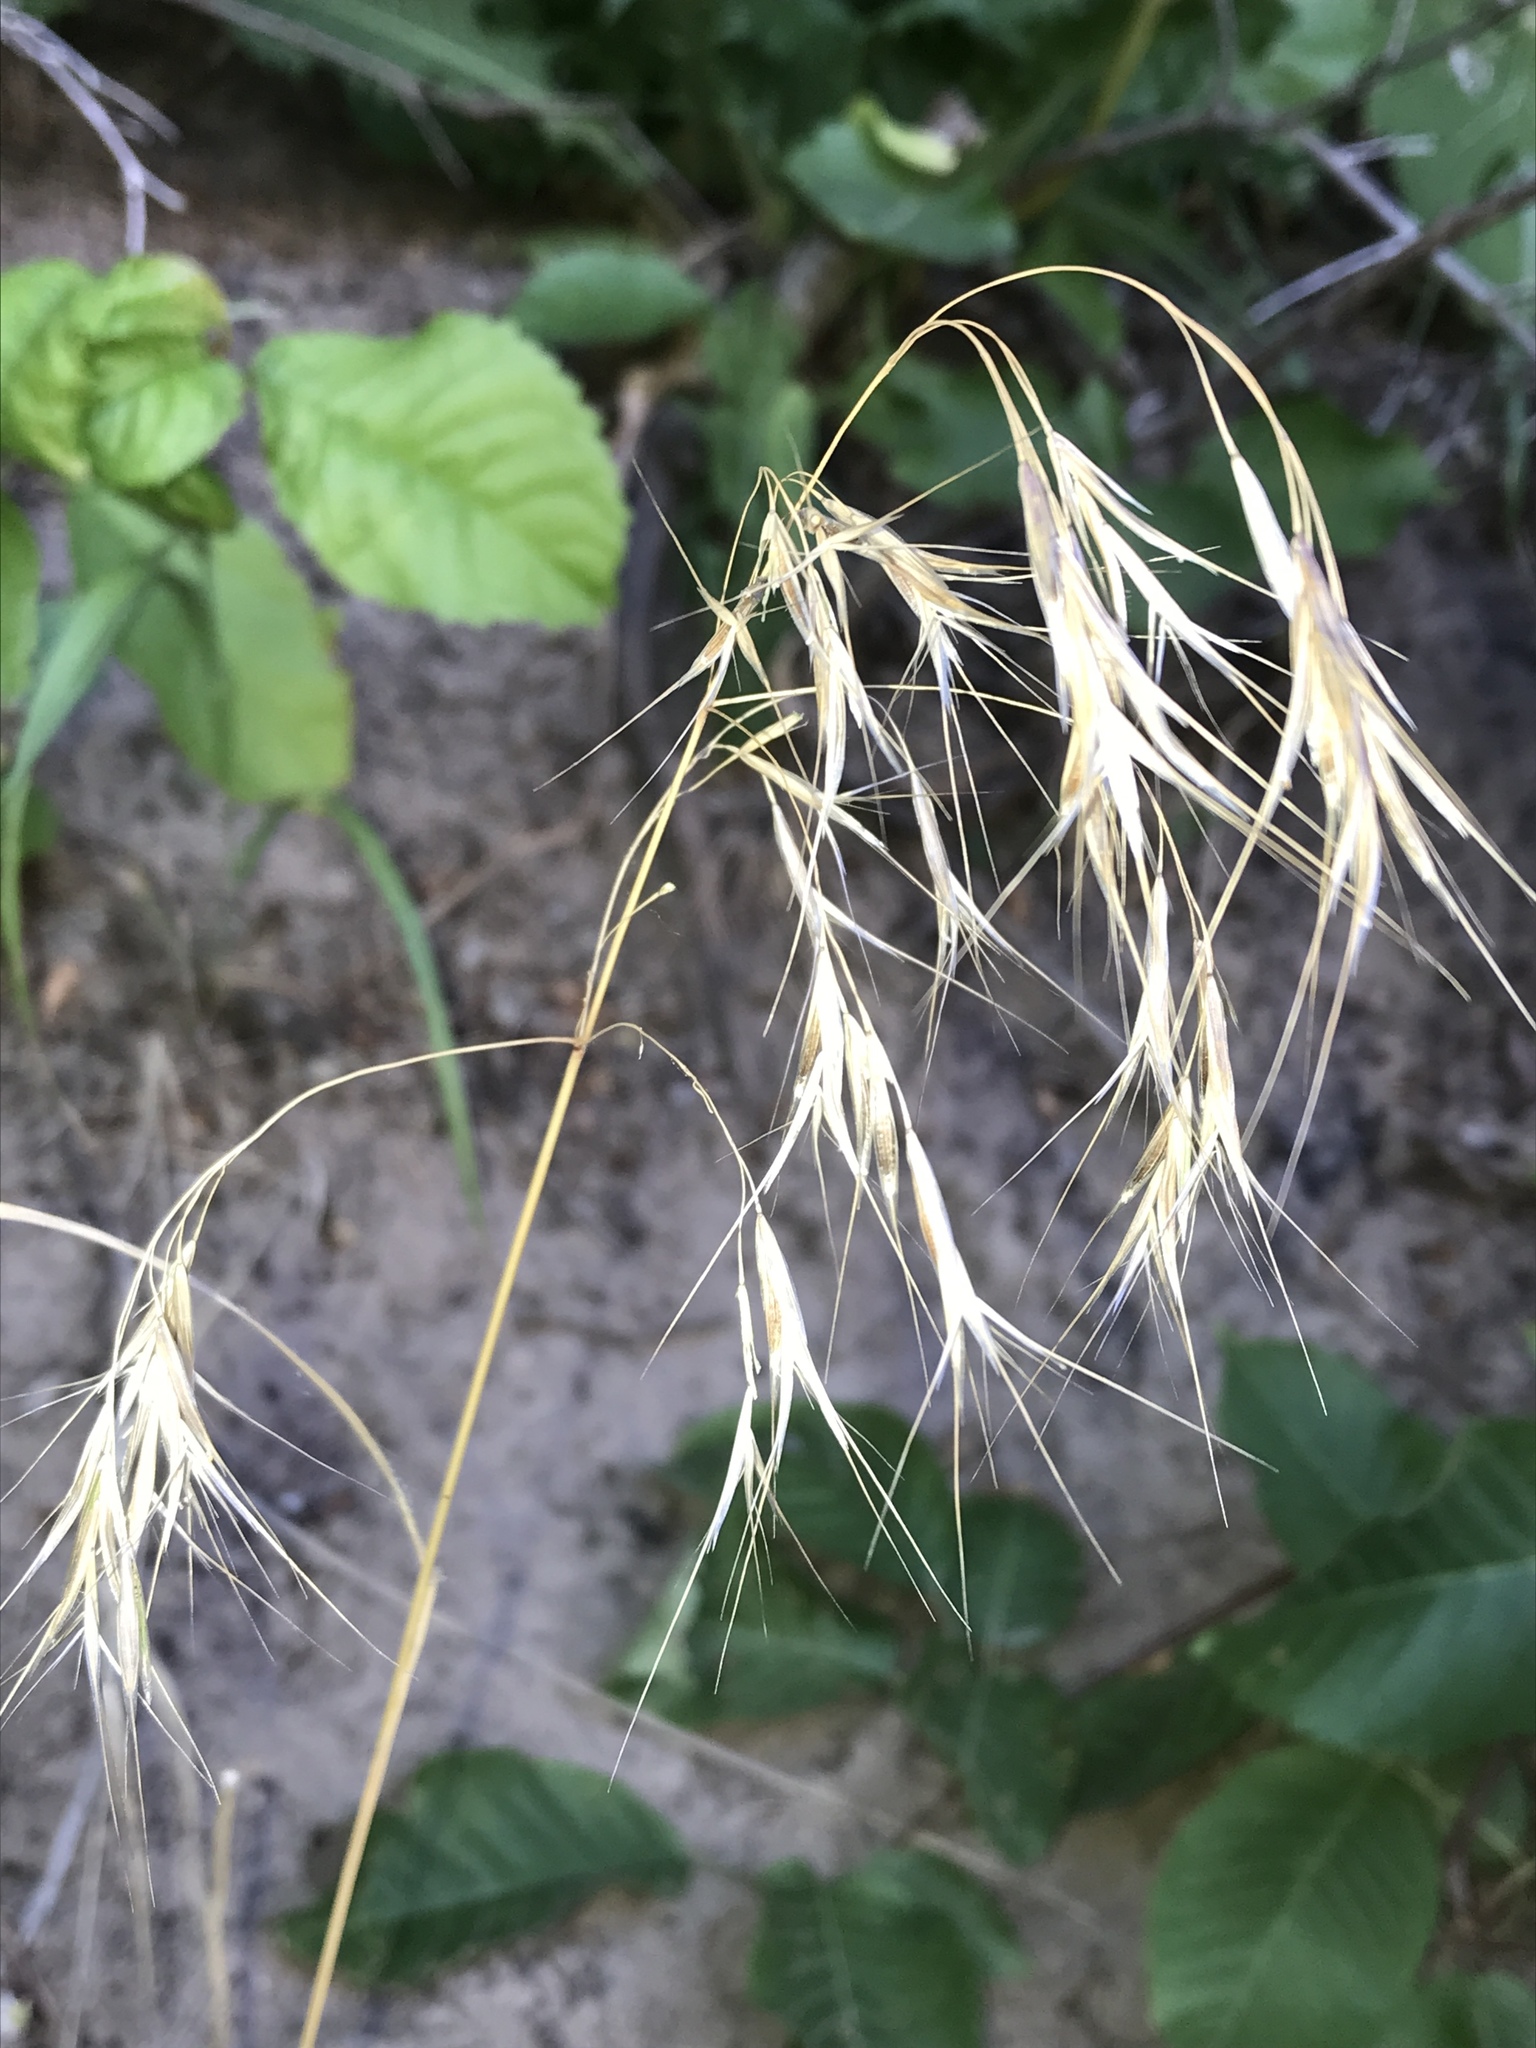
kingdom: Plantae
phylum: Tracheophyta
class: Liliopsida
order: Poales
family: Poaceae
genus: Bromus
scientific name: Bromus tectorum
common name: Cheatgrass
